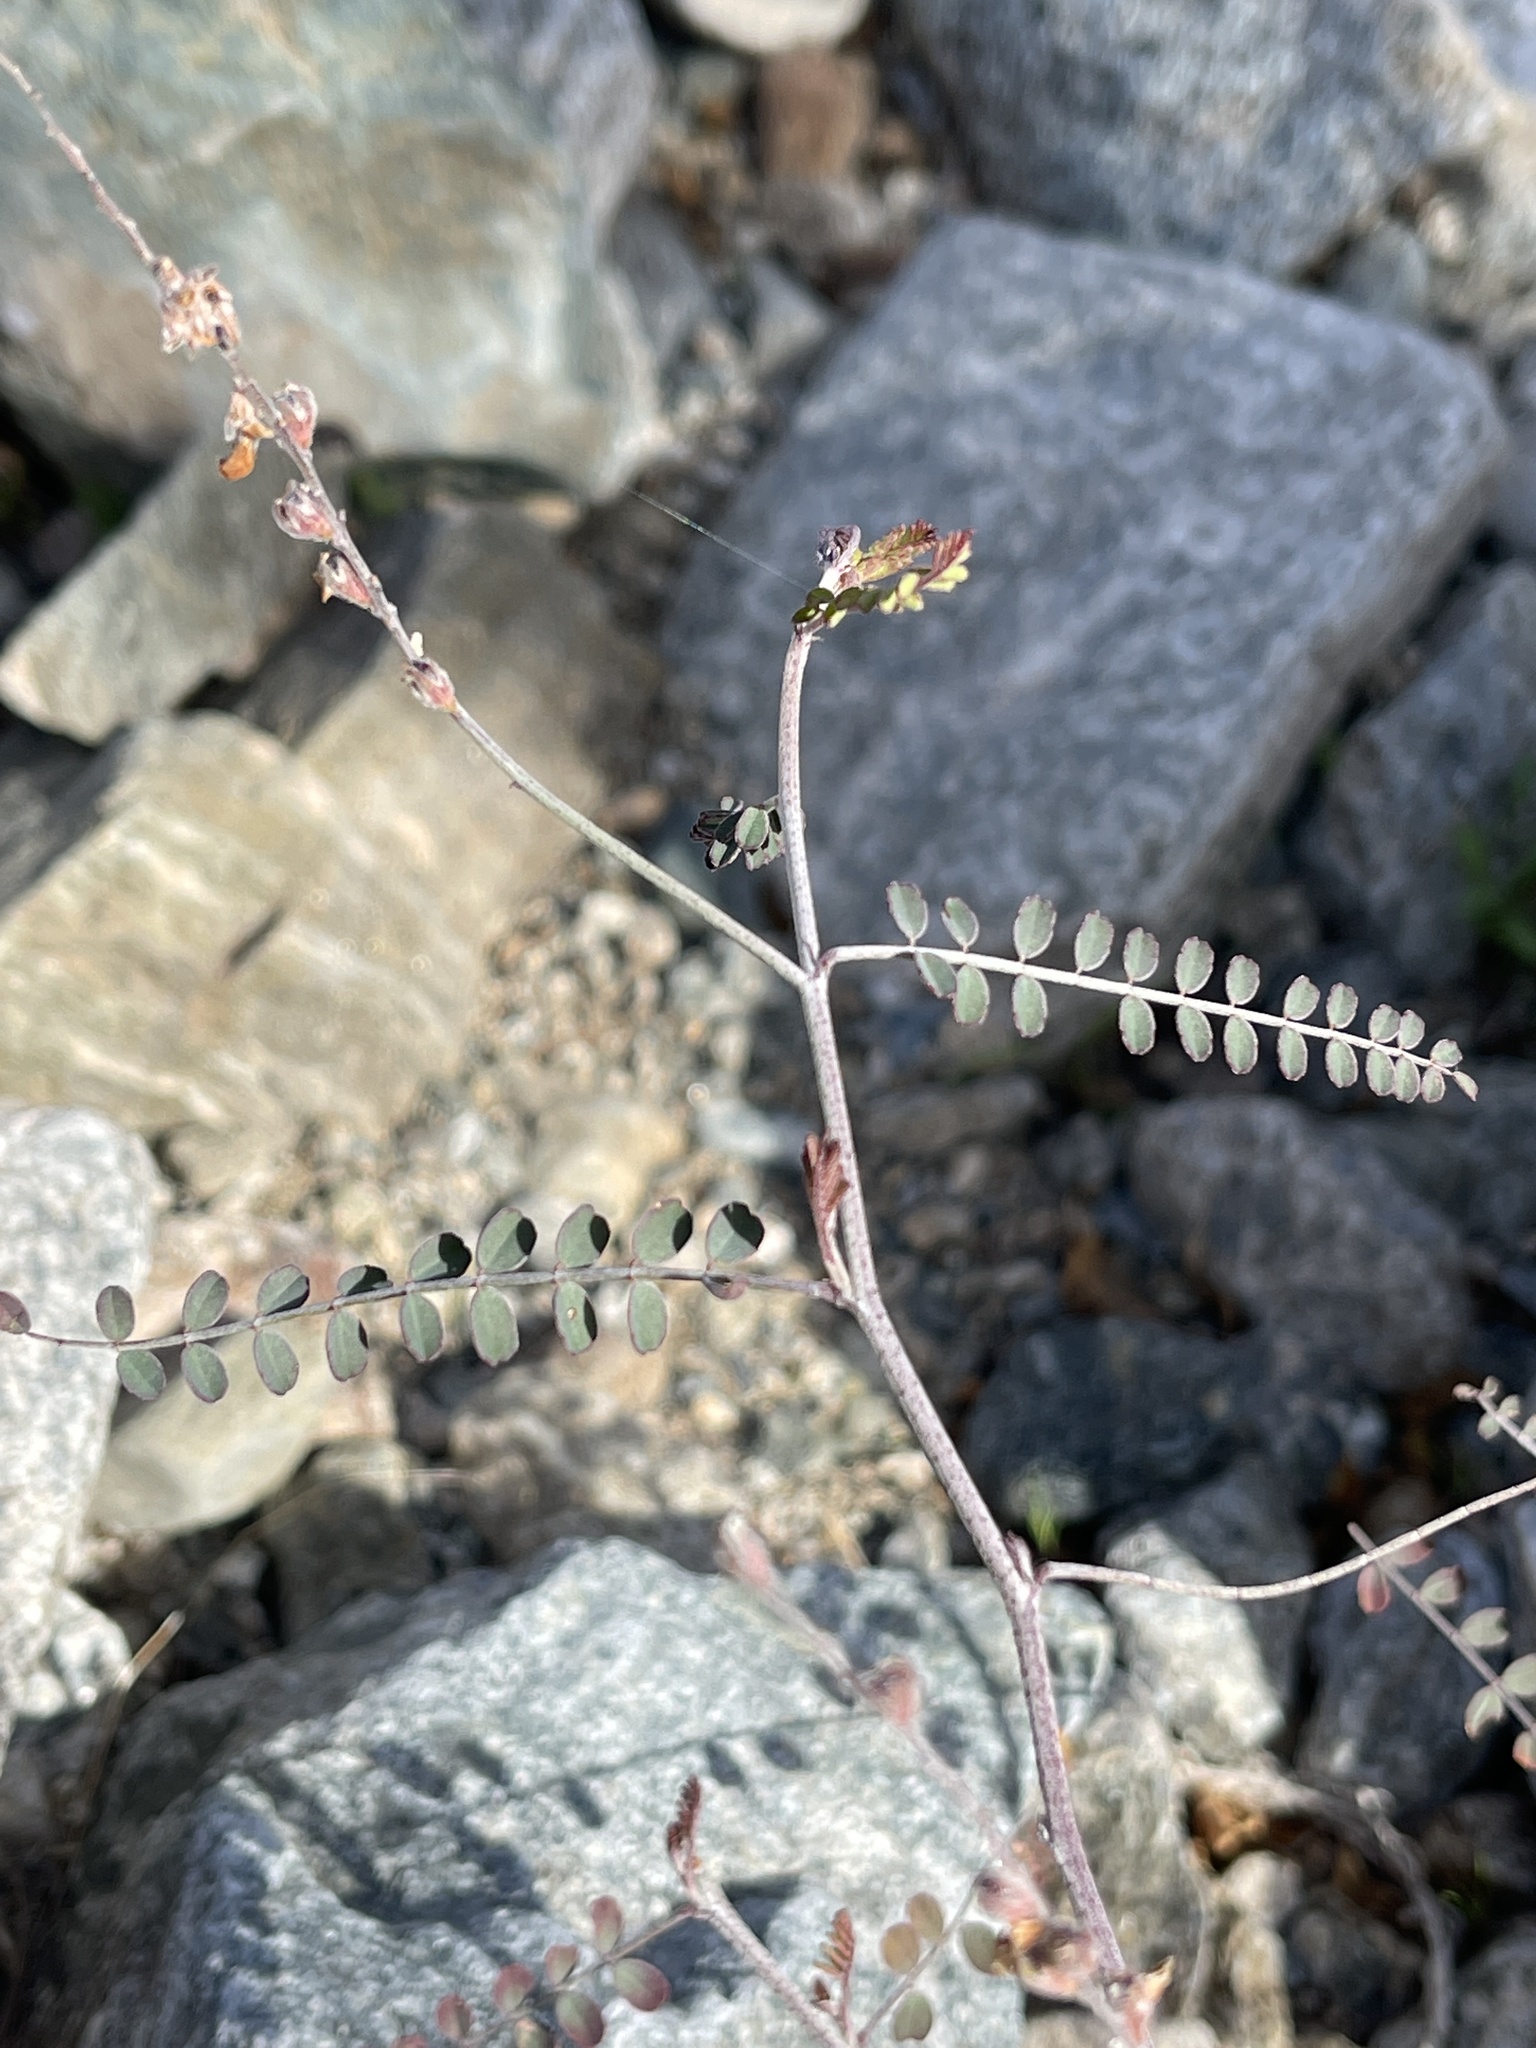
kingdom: Plantae
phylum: Tracheophyta
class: Magnoliopsida
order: Fabales
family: Fabaceae
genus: Marina
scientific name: Marina parryi
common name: Parry's marina
